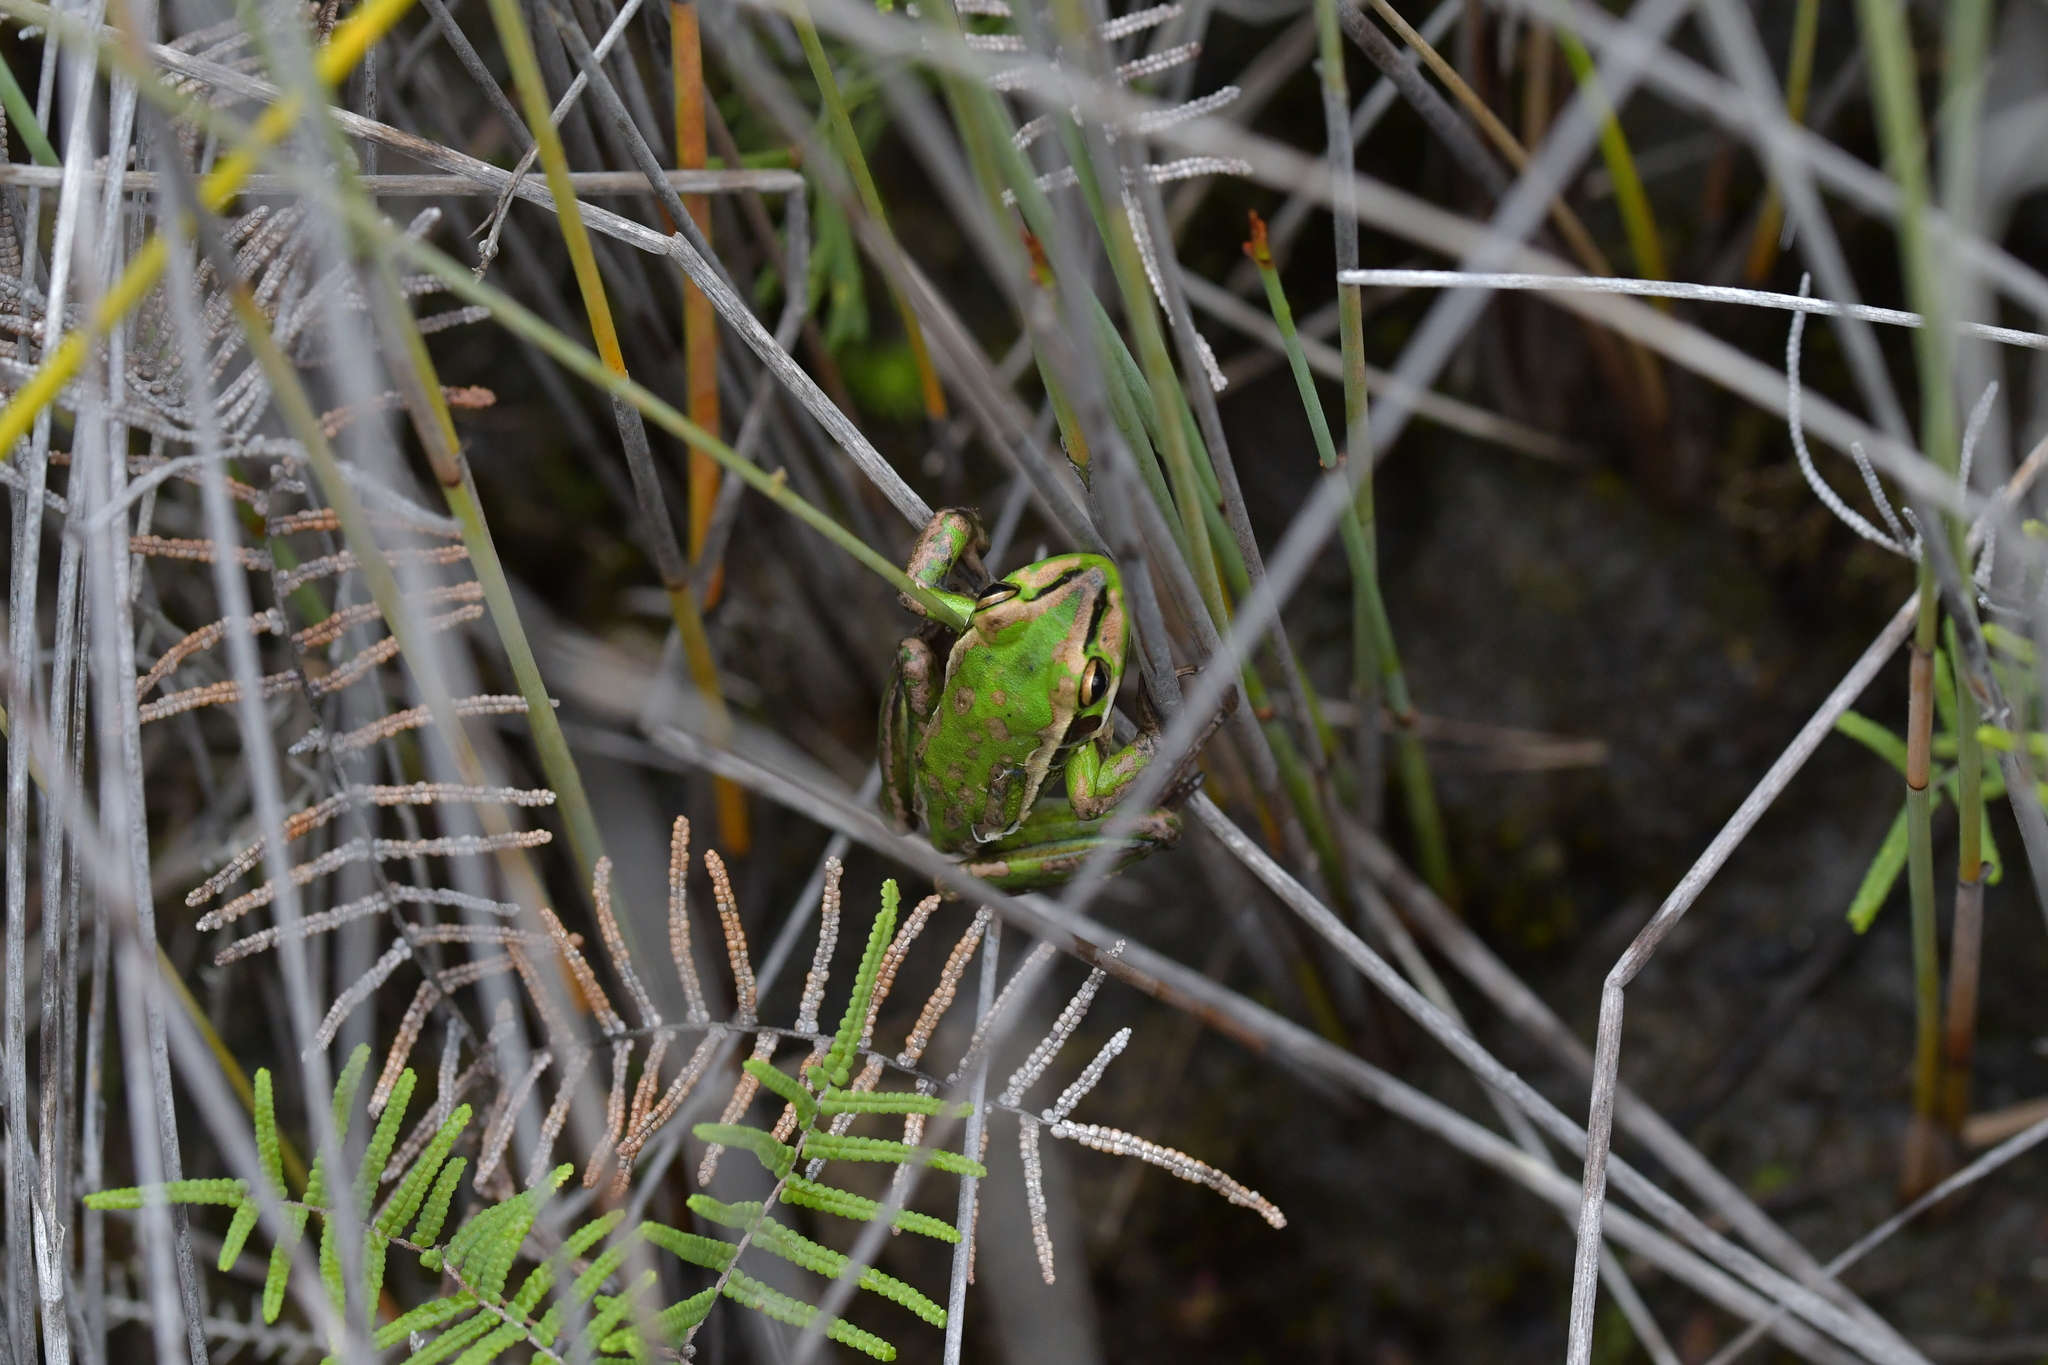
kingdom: Animalia
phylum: Chordata
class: Amphibia
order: Anura
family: Pelodryadidae
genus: Ranoidea
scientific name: Ranoidea aurea
